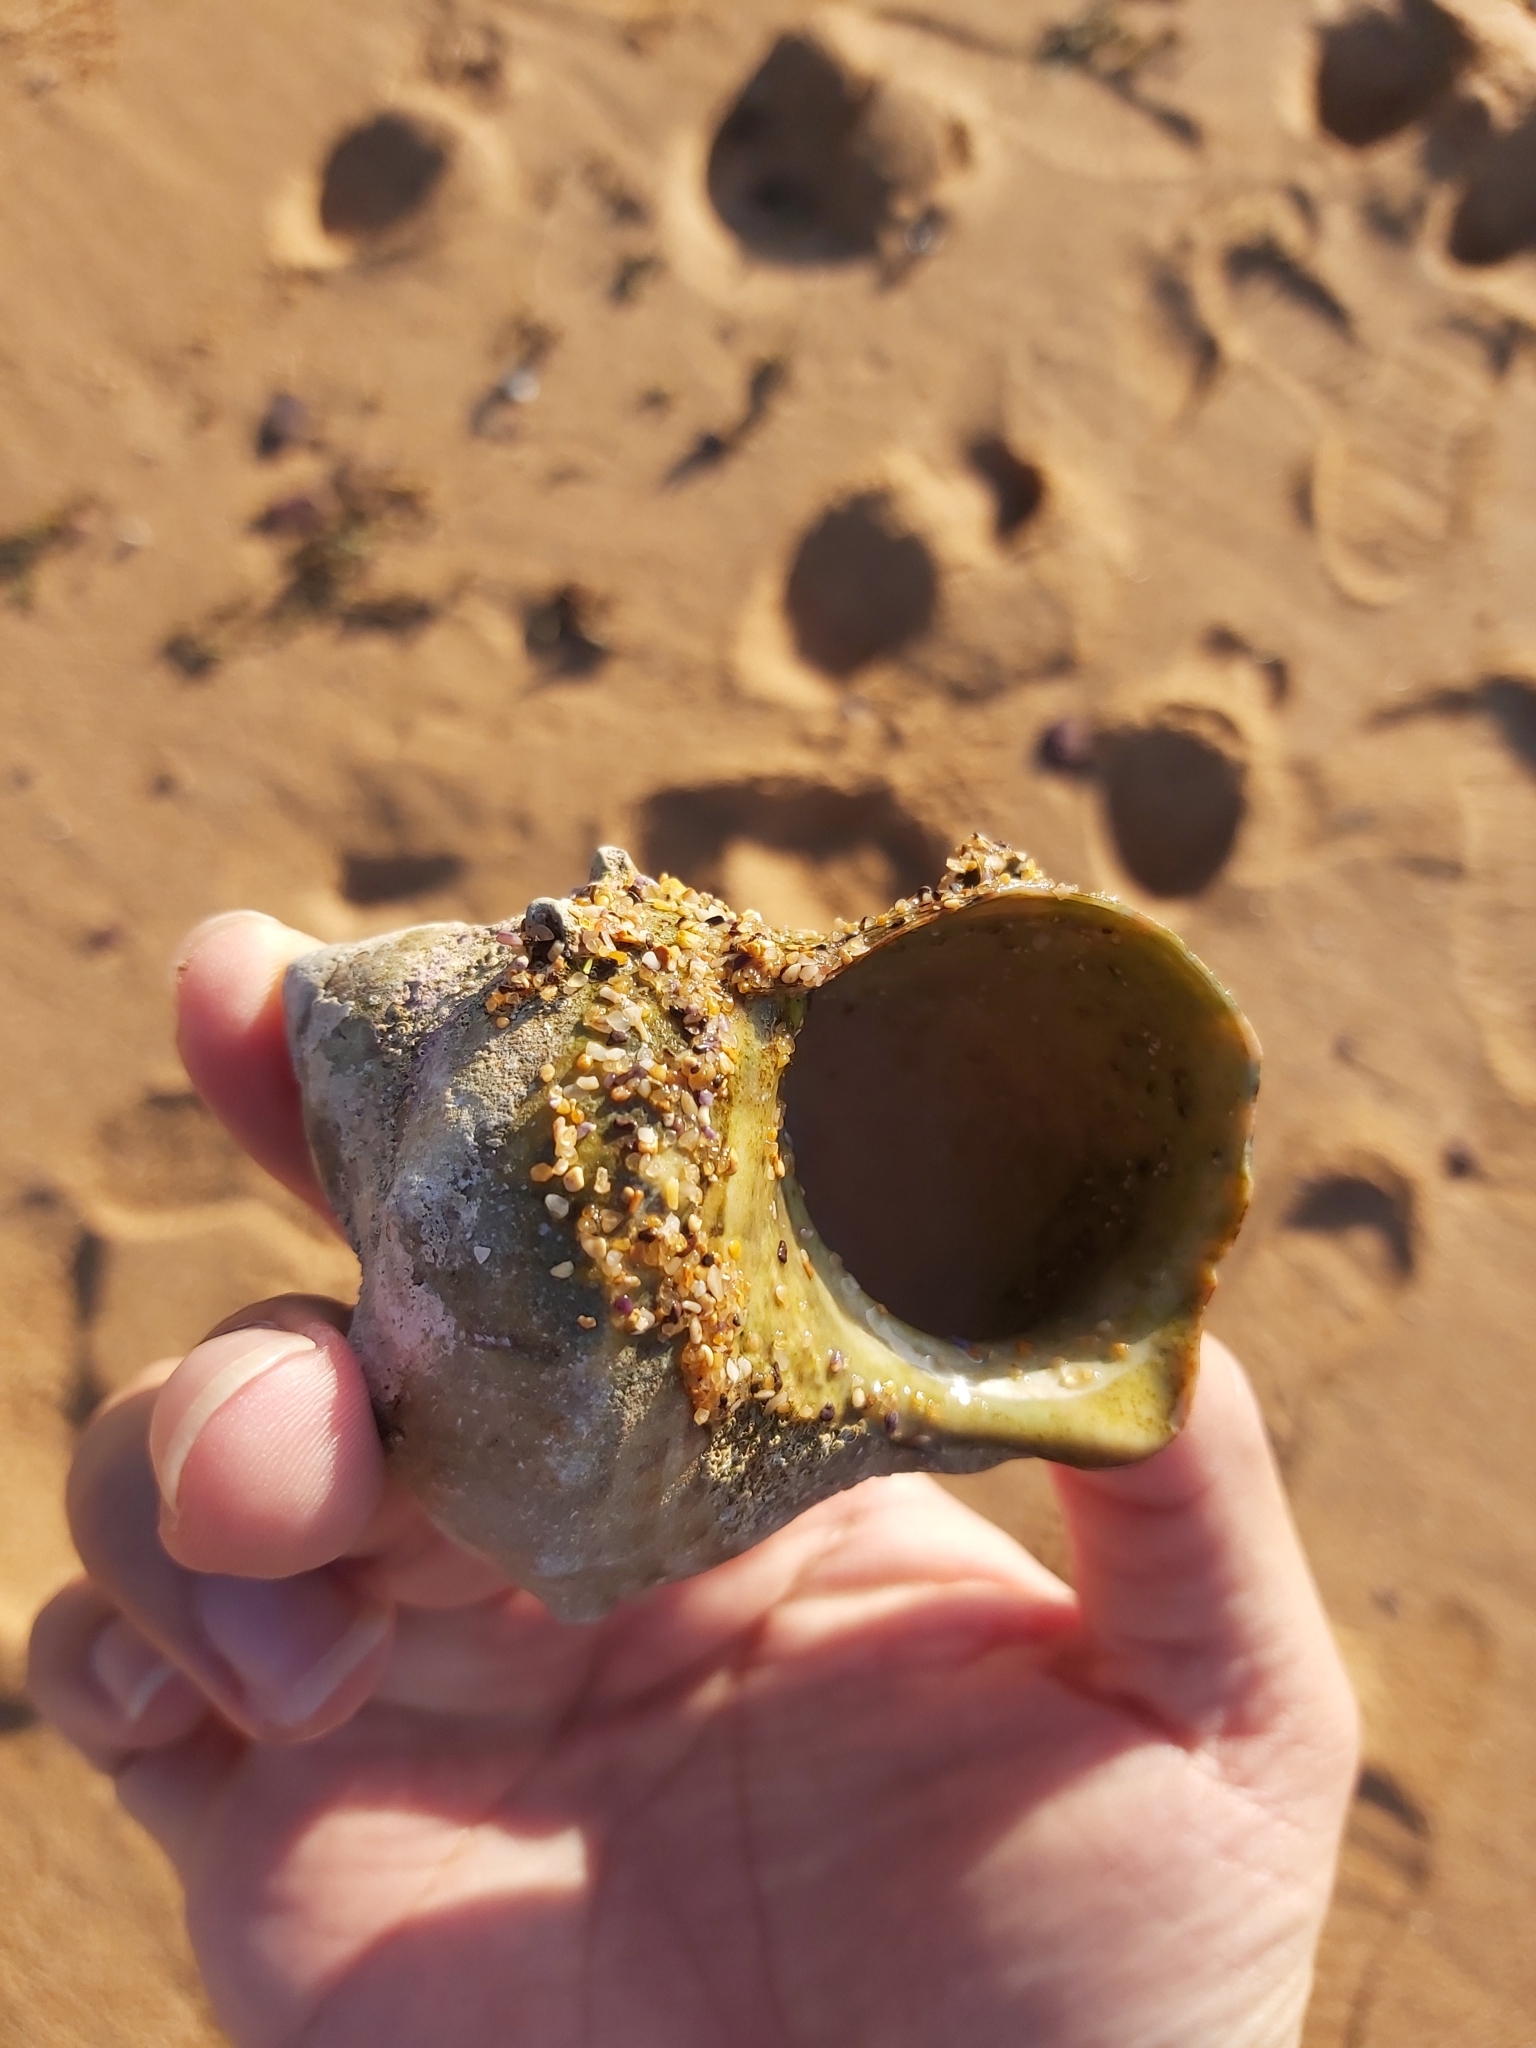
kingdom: Animalia
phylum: Mollusca
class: Gastropoda
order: Trochida
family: Turbinidae
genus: Turbo
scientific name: Turbo militaris
